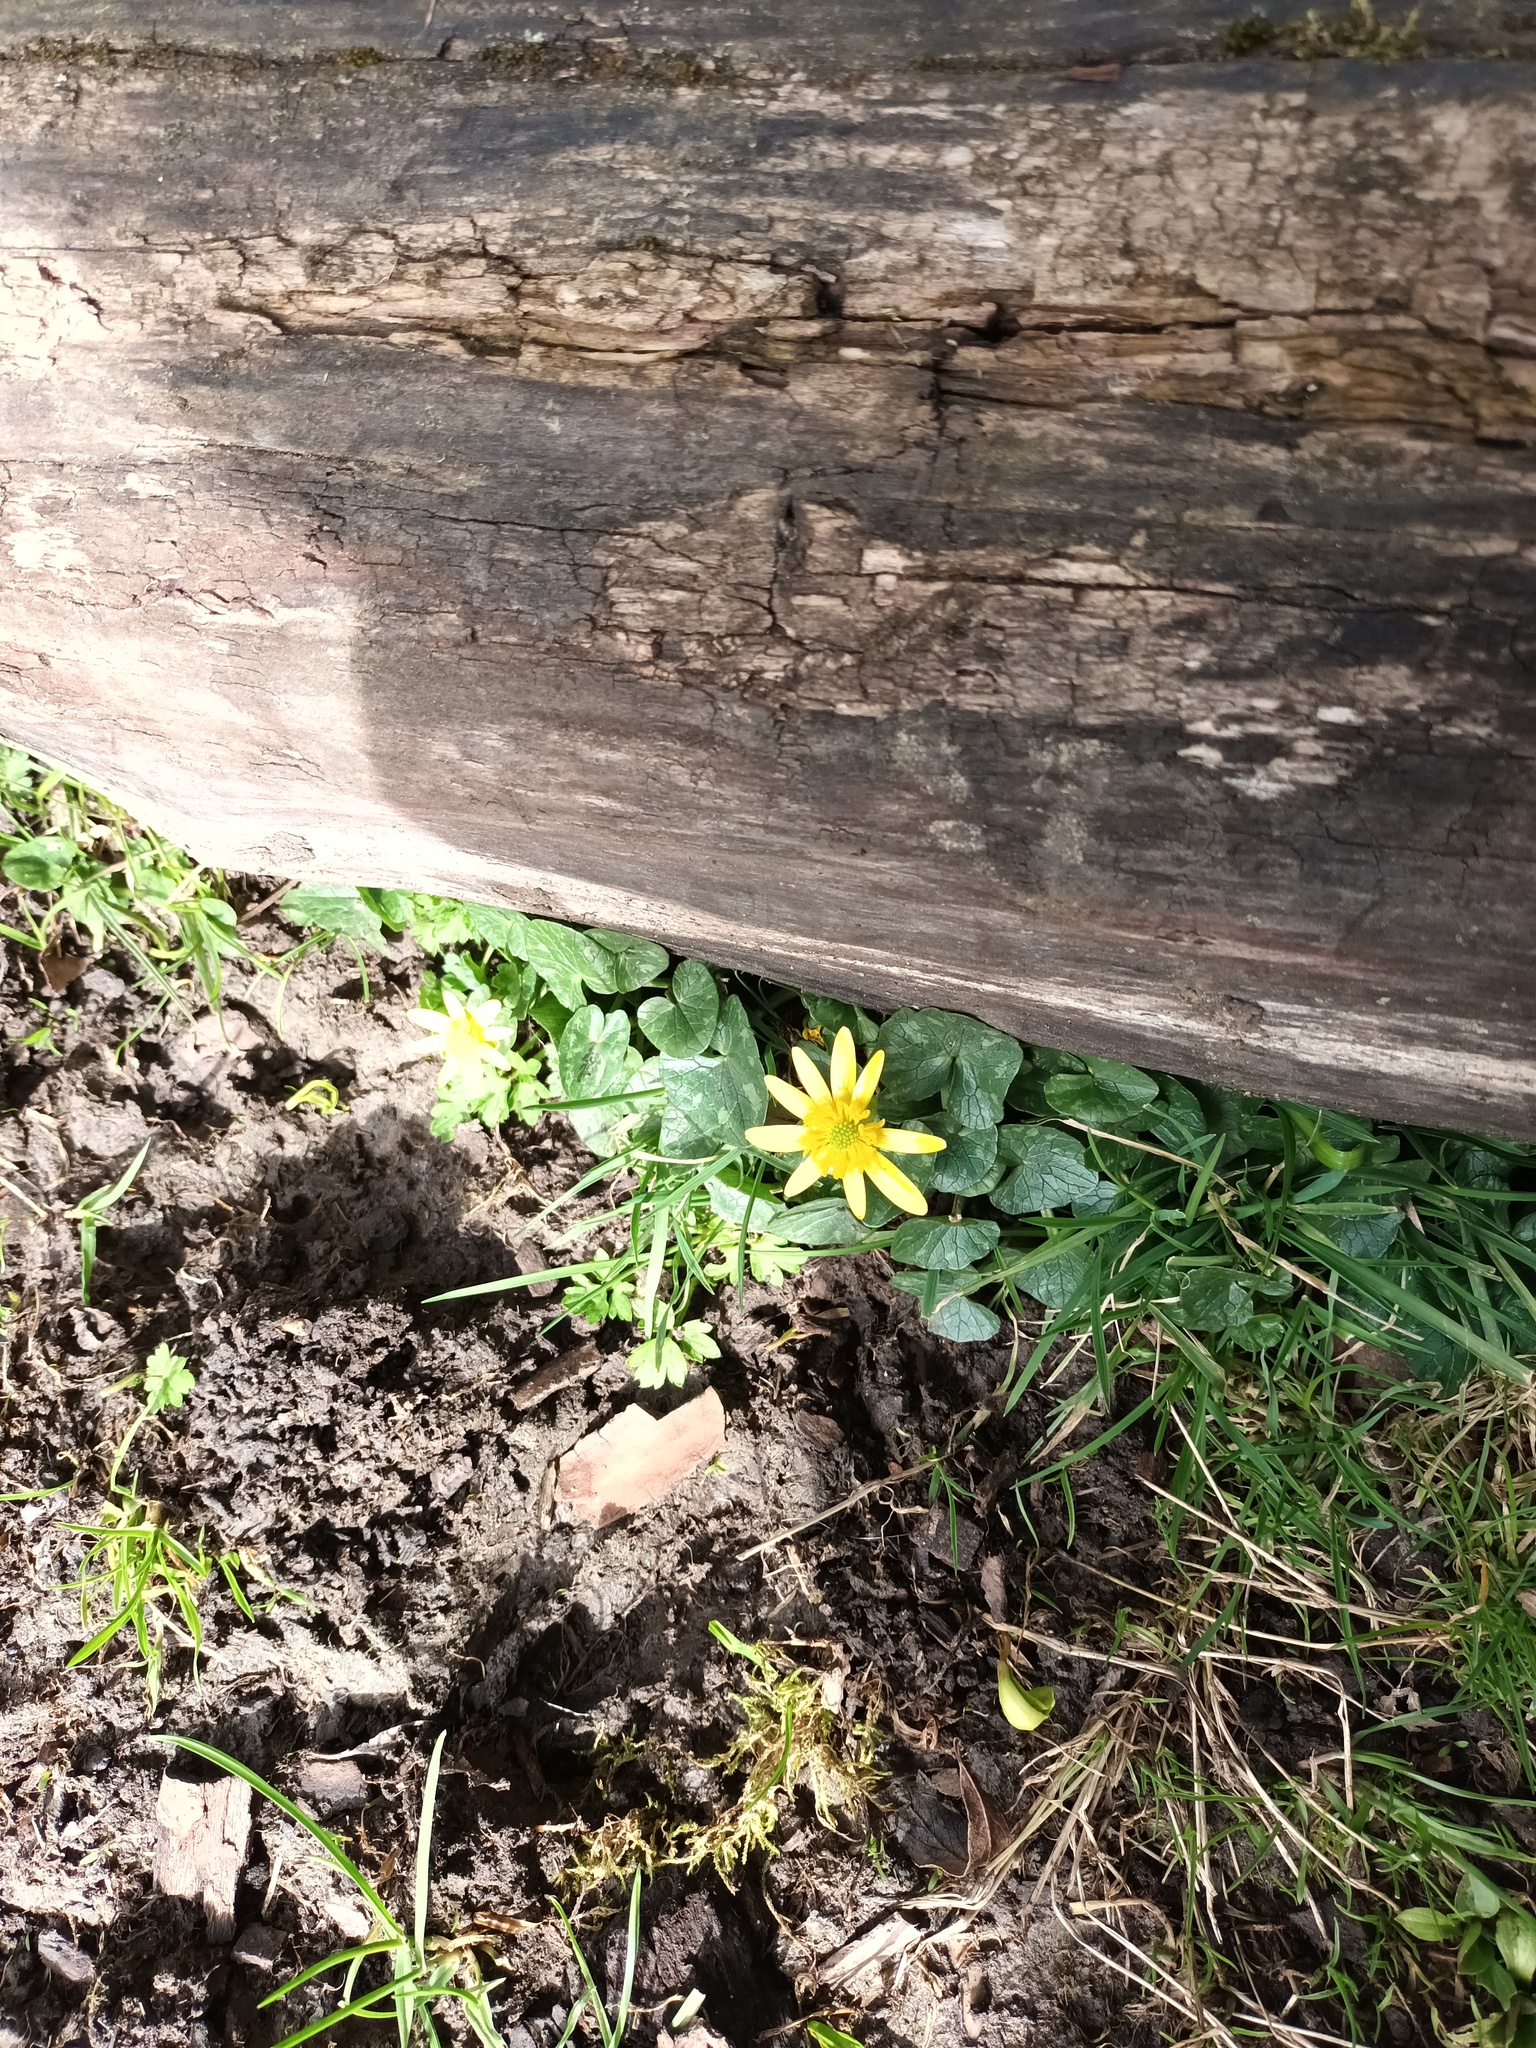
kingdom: Plantae
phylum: Tracheophyta
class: Magnoliopsida
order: Ranunculales
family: Ranunculaceae
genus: Ficaria
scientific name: Ficaria verna
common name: Lesser celandine
